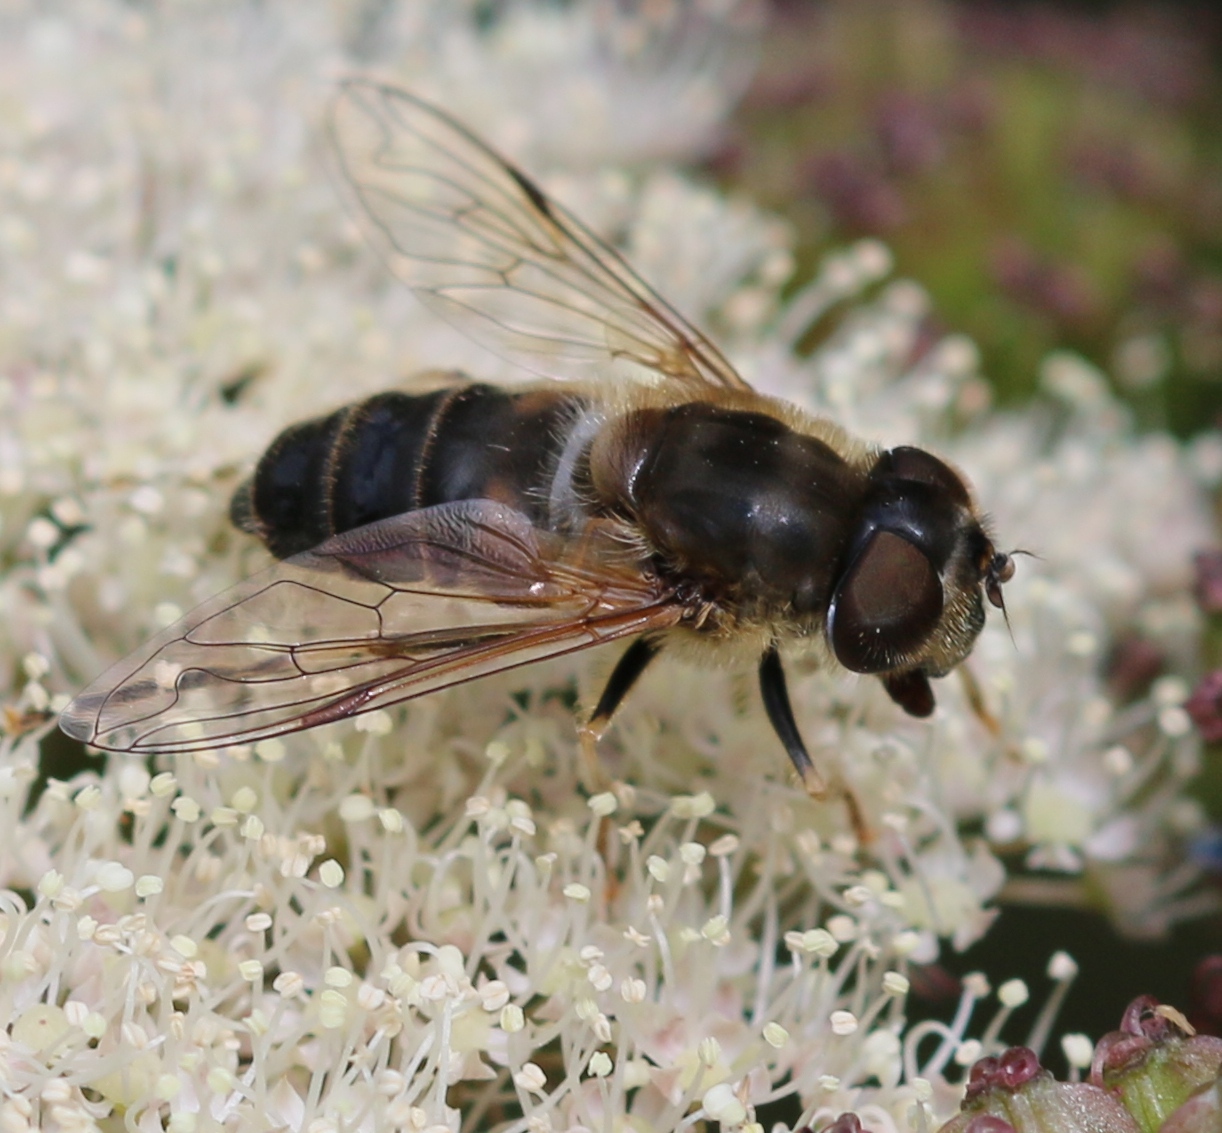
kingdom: Animalia
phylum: Arthropoda
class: Insecta
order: Diptera
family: Syrphidae
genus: Eristalis
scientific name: Eristalis pertinax
